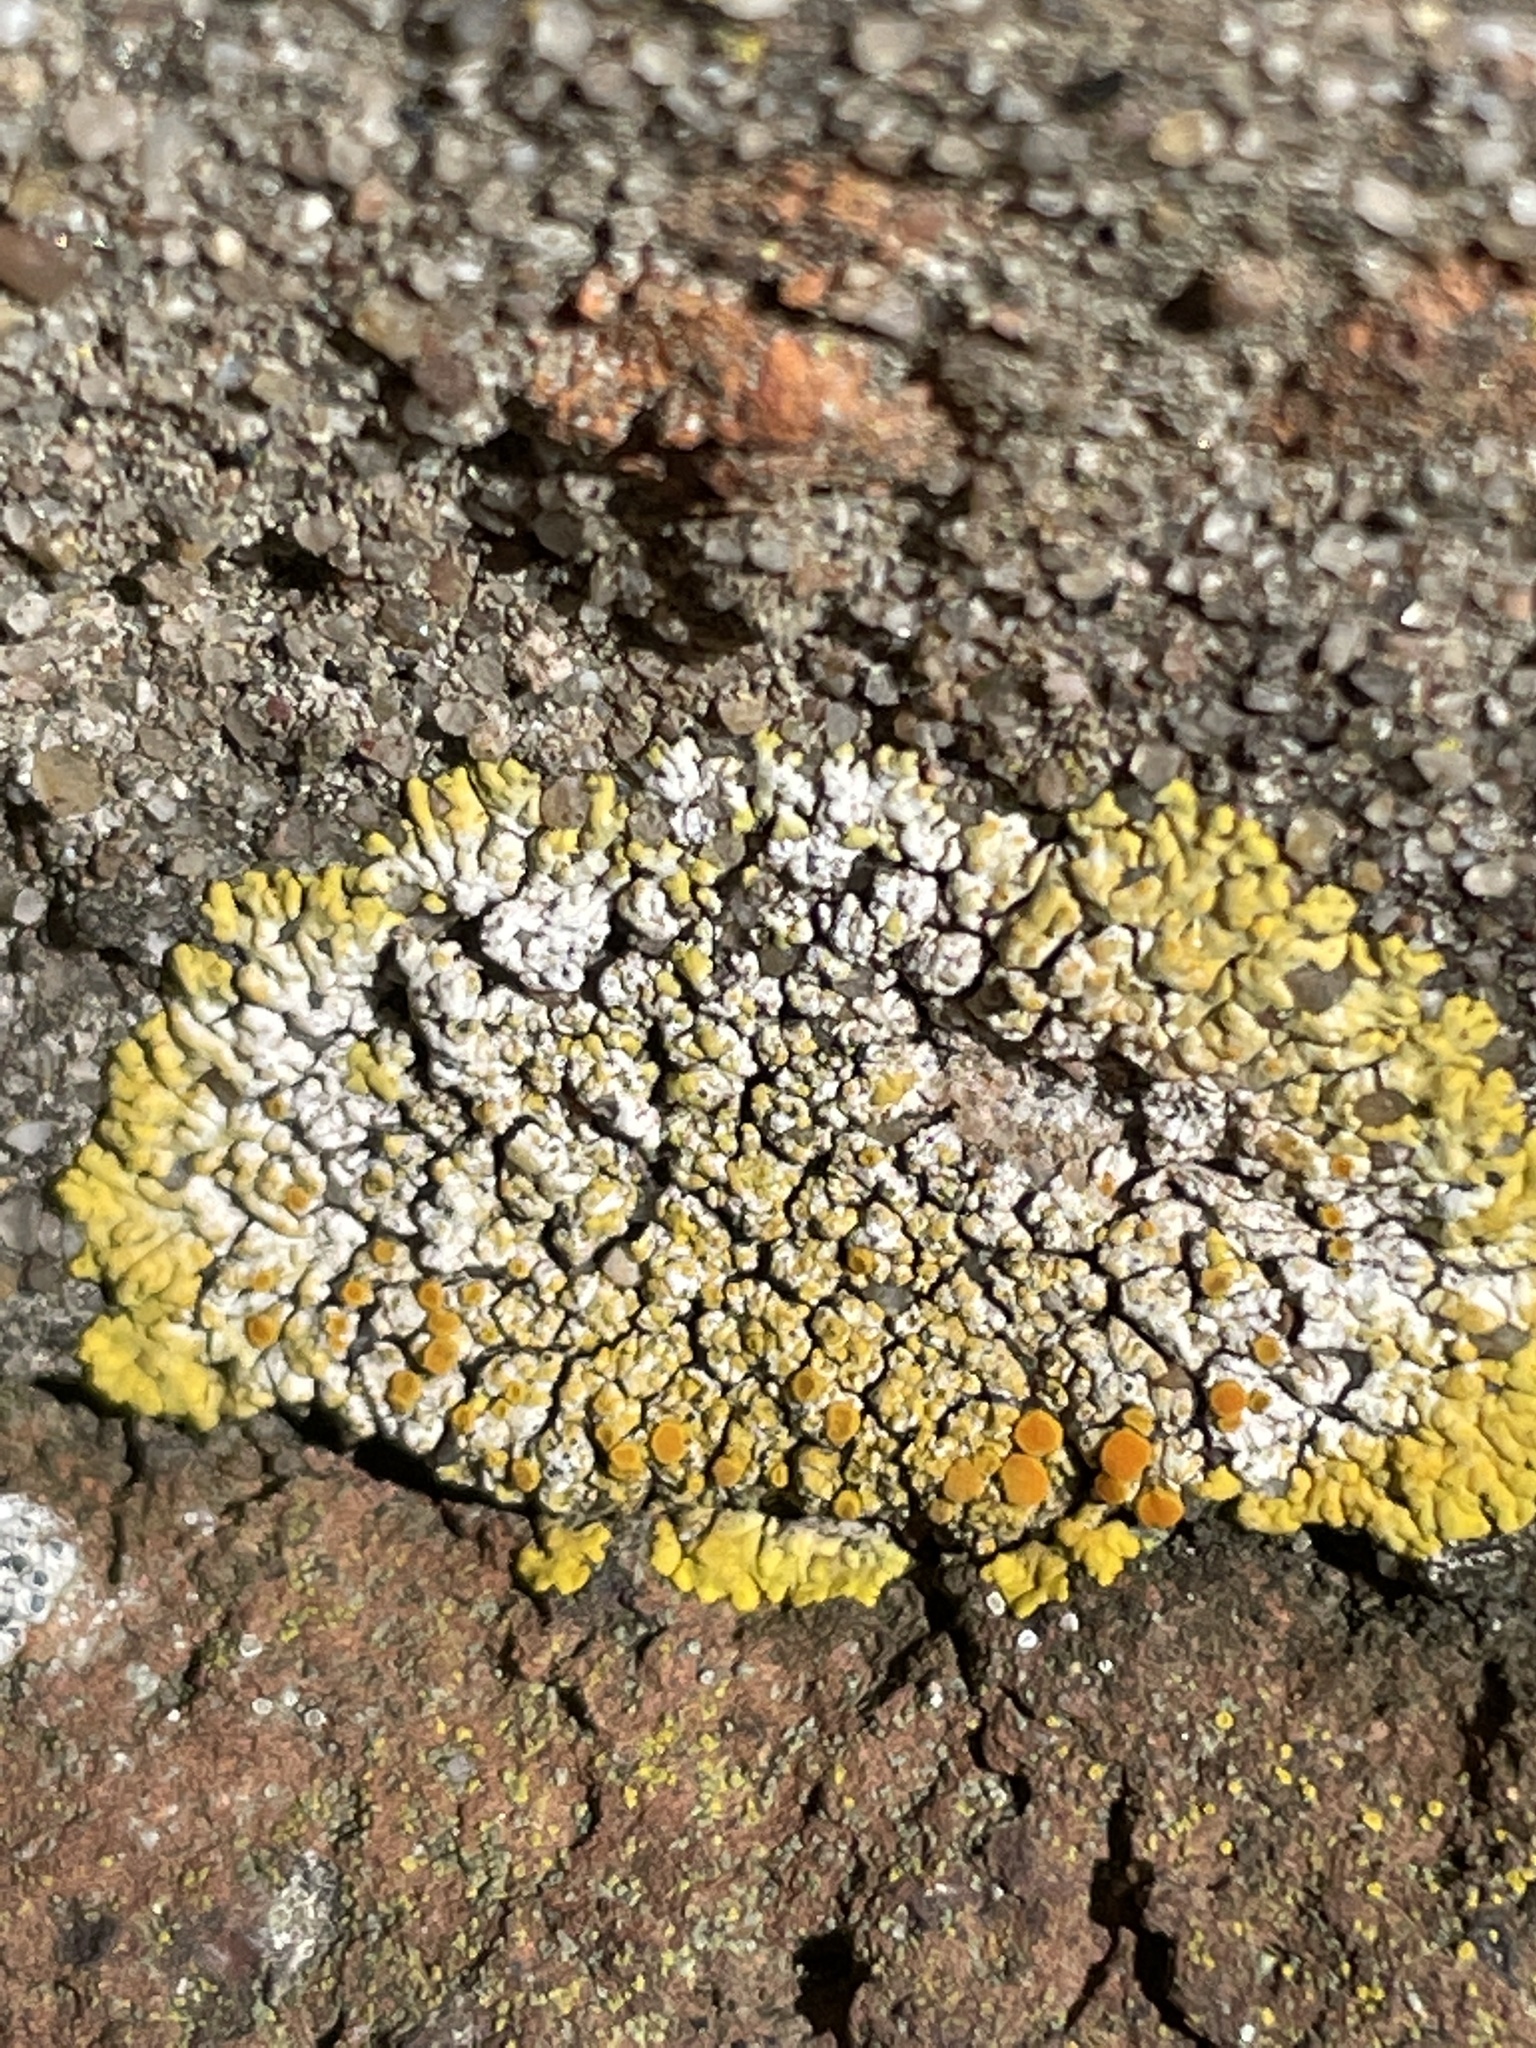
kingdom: Fungi
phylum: Ascomycota
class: Lecanoromycetes
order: Teloschistales
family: Teloschistaceae
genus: Variospora
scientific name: Variospora flavescens
